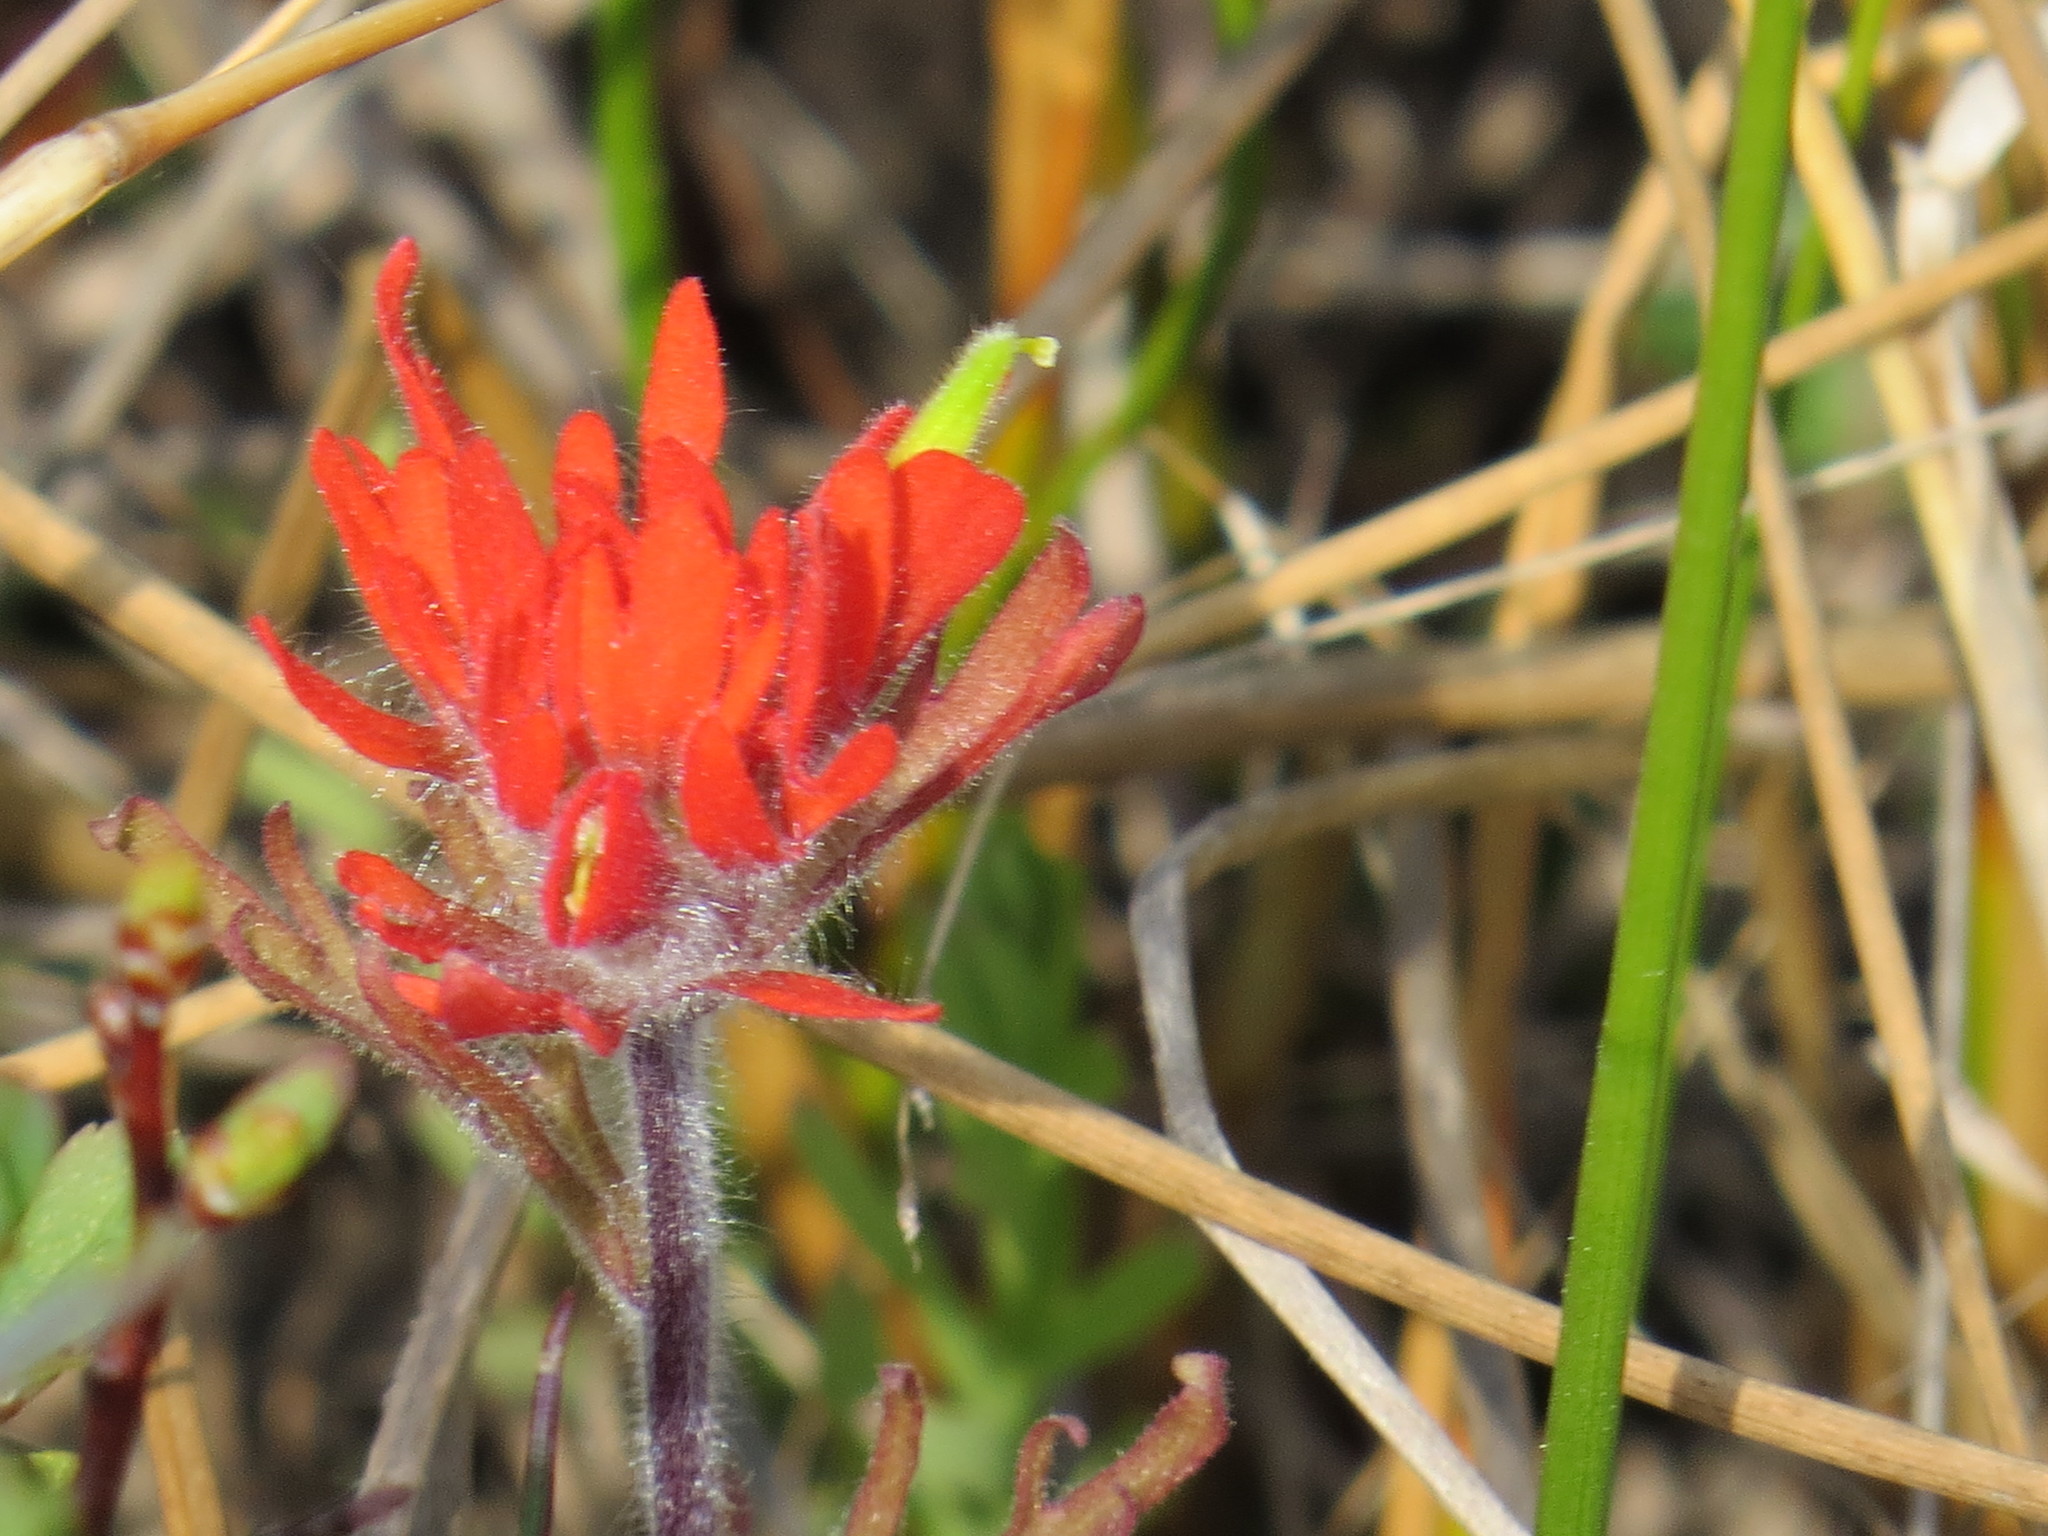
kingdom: Plantae
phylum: Tracheophyta
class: Magnoliopsida
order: Lamiales
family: Orobanchaceae
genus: Castilleja
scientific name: Castilleja coccinea
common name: Scarlet paintbrush
